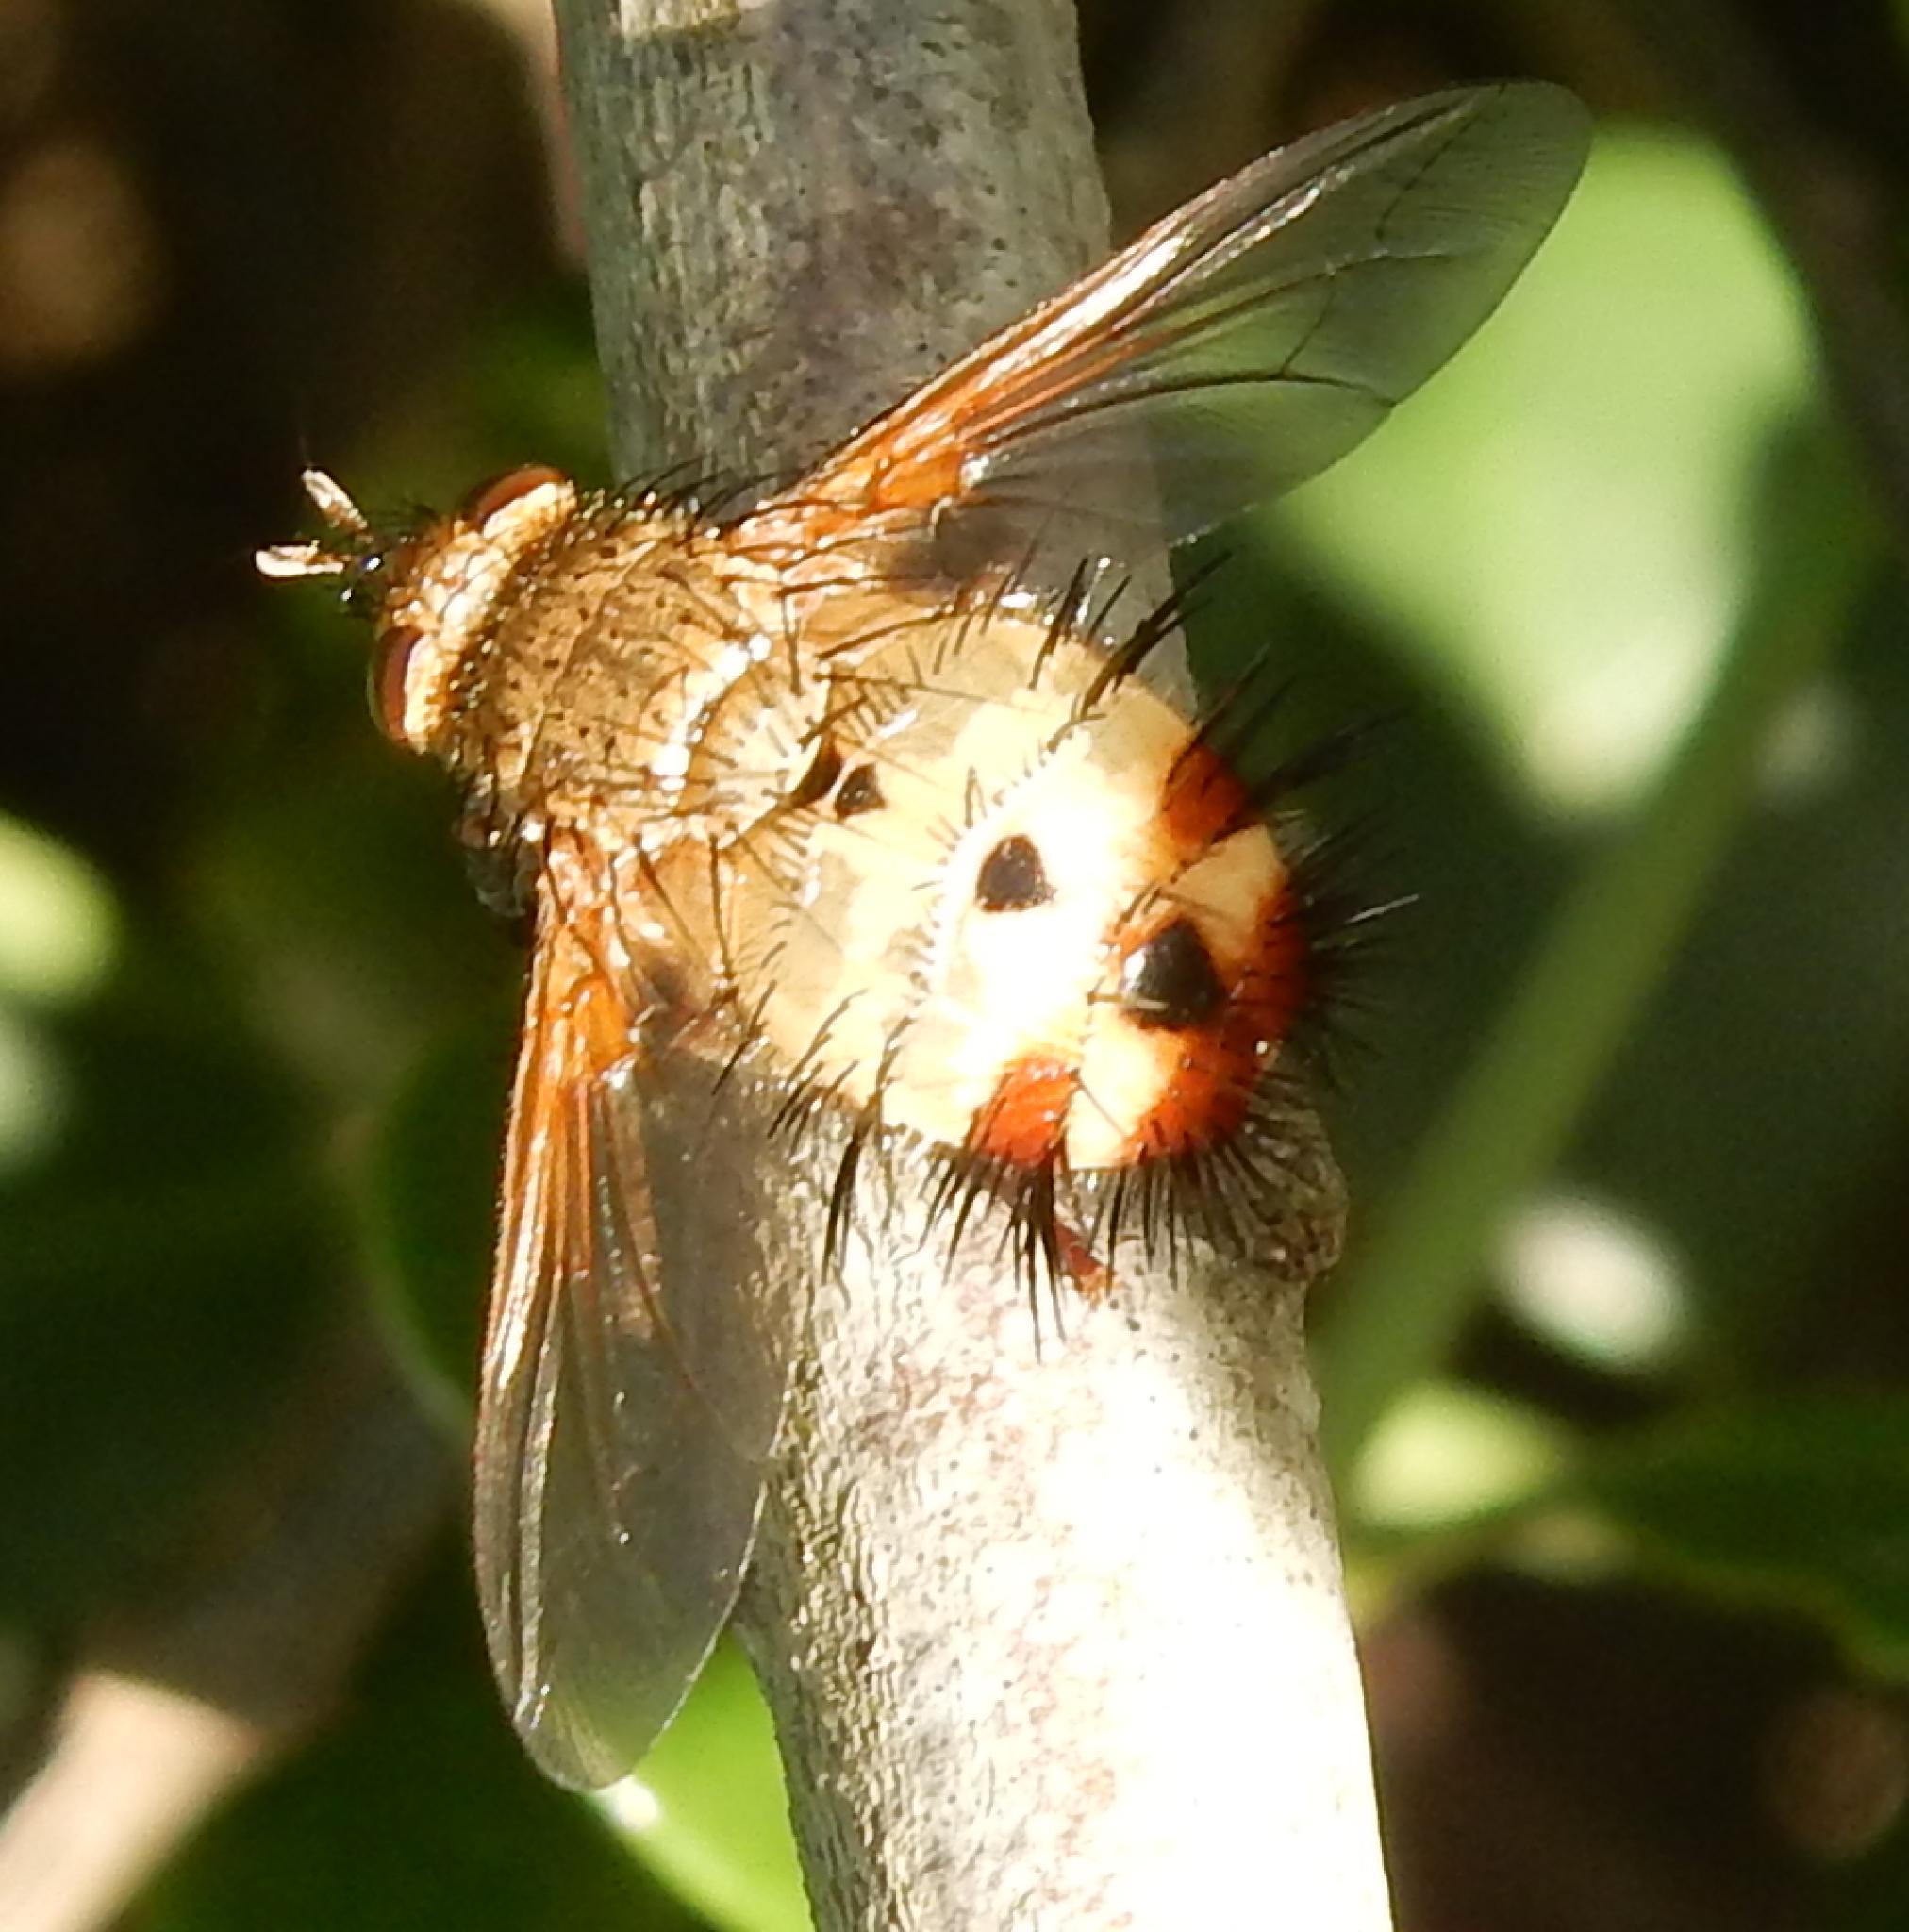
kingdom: Animalia
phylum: Arthropoda
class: Insecta
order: Diptera
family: Tachinidae
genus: Dejeania
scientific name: Dejeania bombylans
